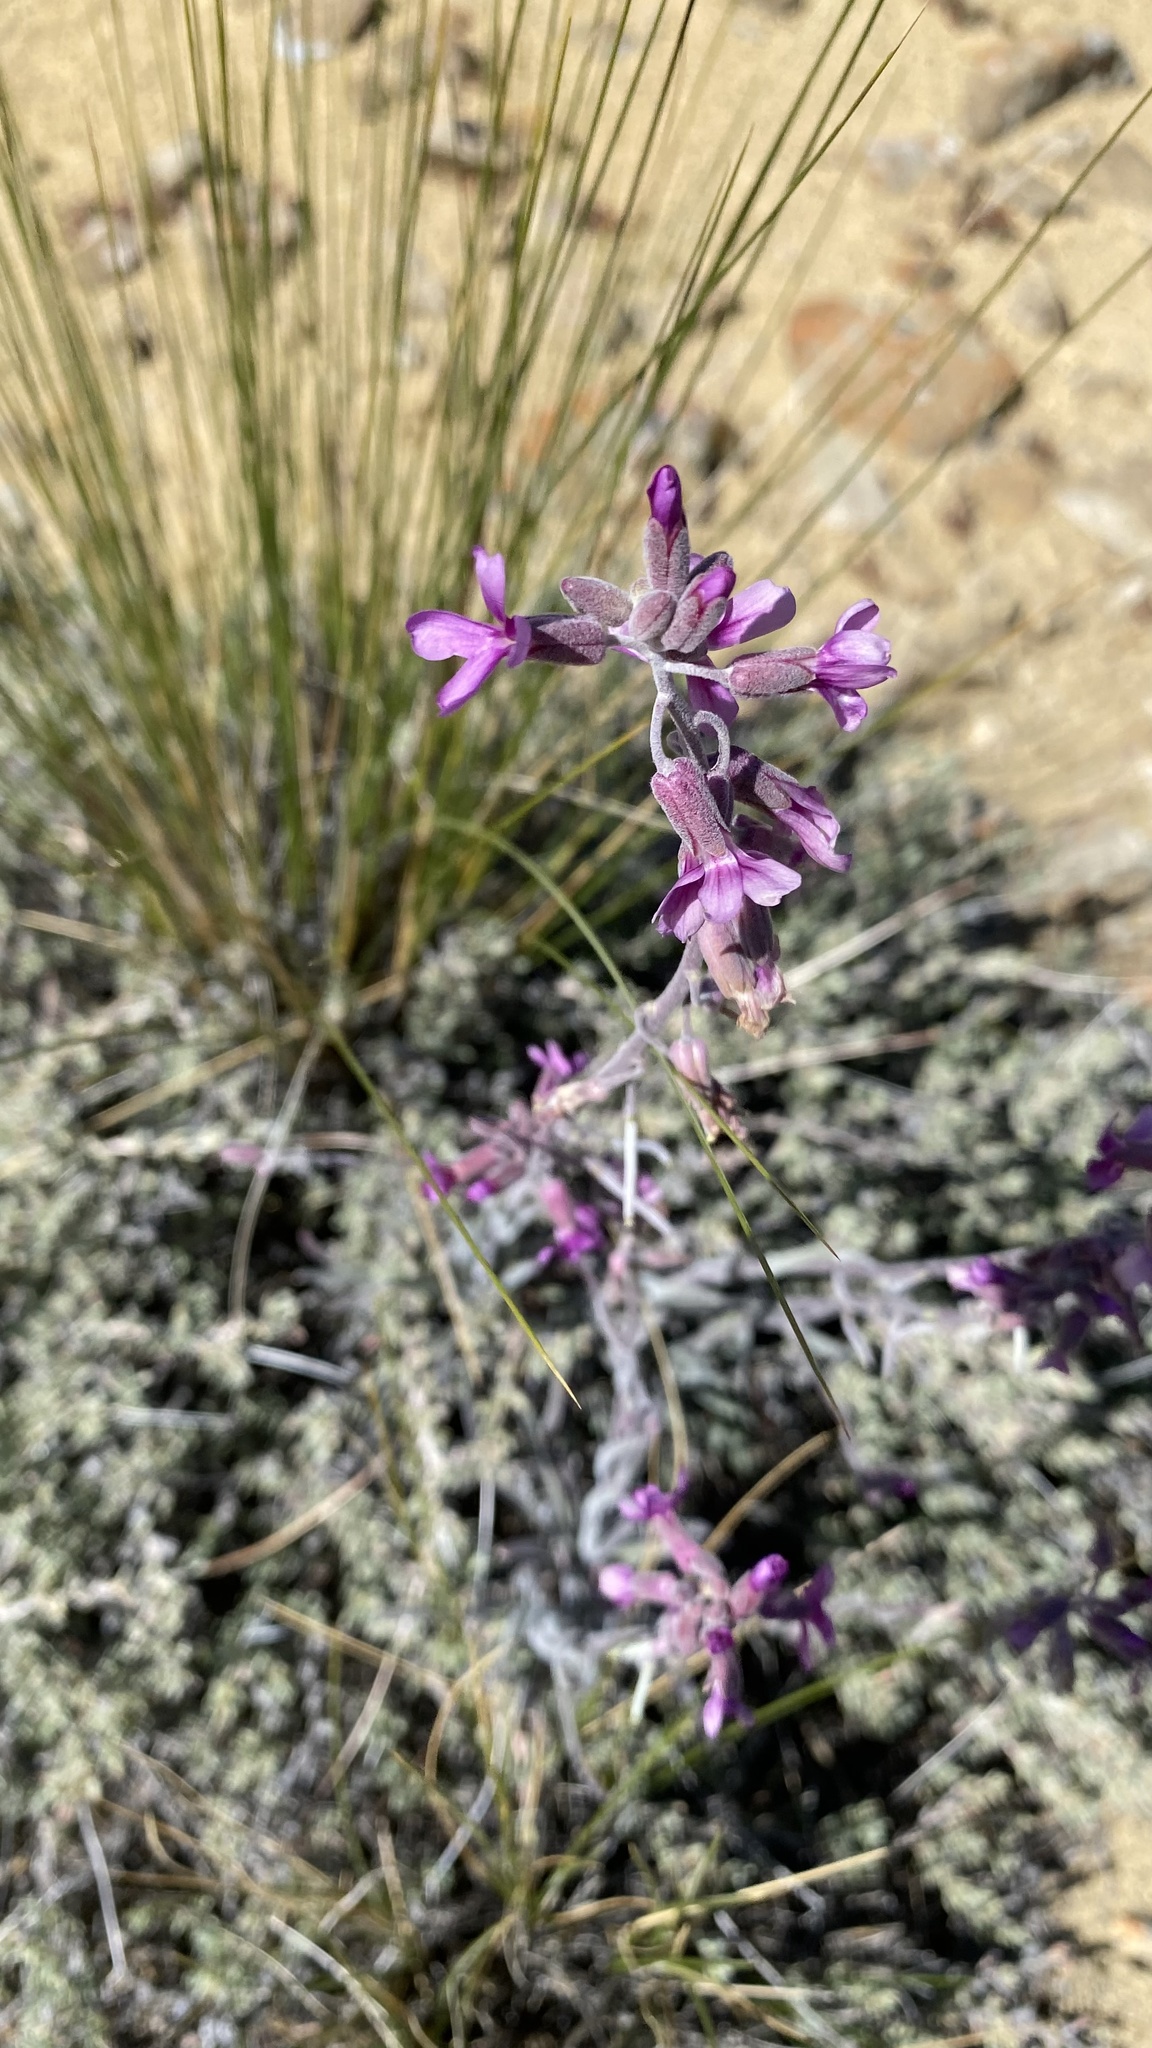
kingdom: Plantae
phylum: Tracheophyta
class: Magnoliopsida
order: Brassicales
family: Brassicaceae
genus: Boechera
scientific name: Boechera pulchra
